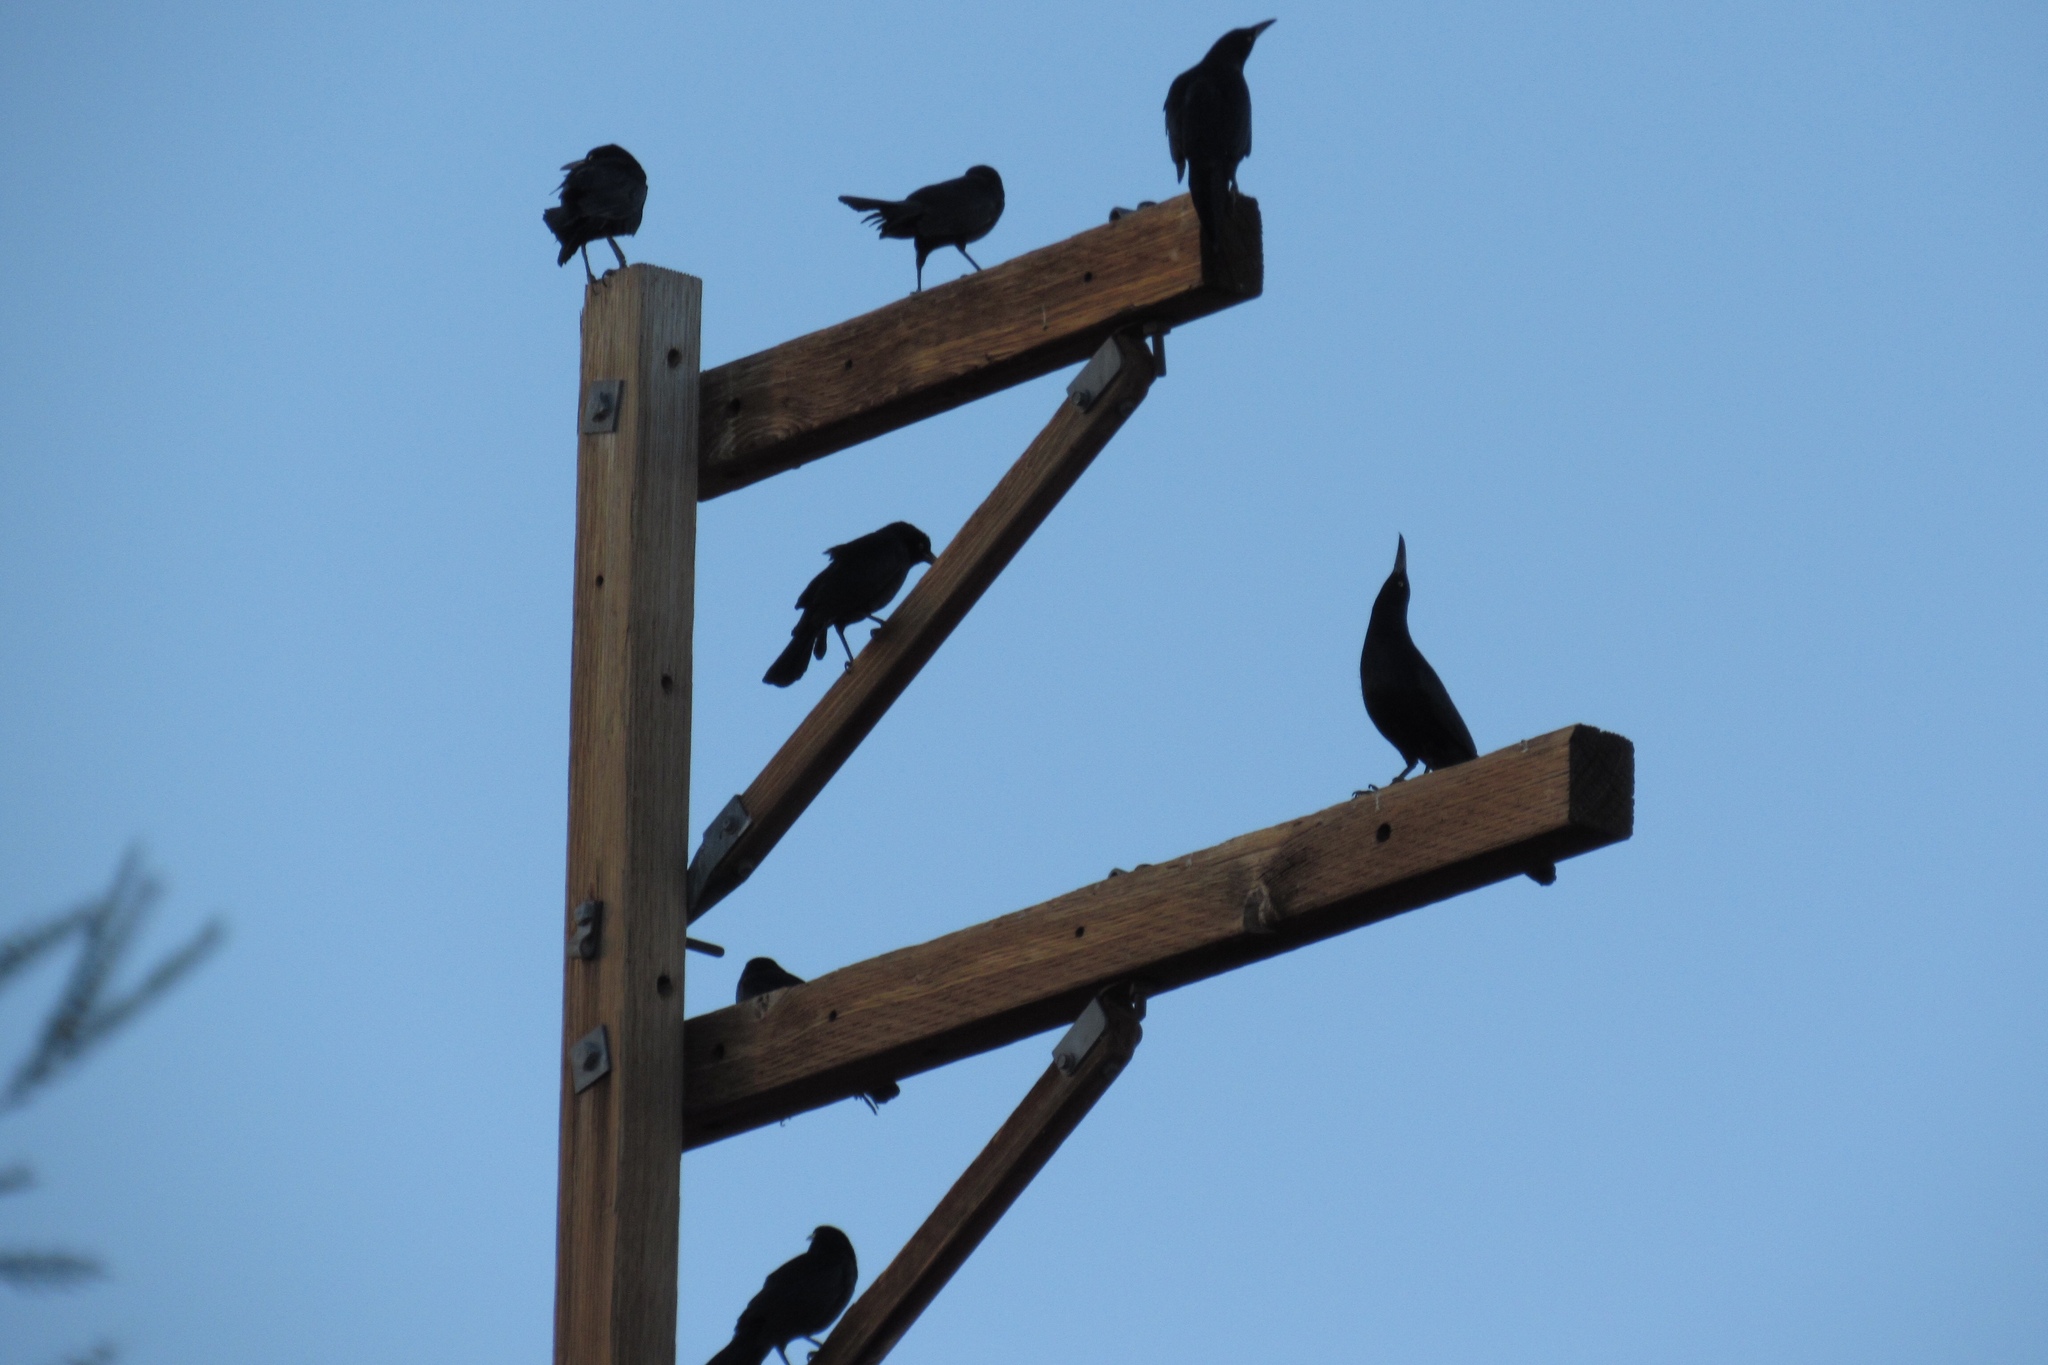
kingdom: Animalia
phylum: Chordata
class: Aves
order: Passeriformes
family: Icteridae
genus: Quiscalus
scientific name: Quiscalus mexicanus
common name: Great-tailed grackle
